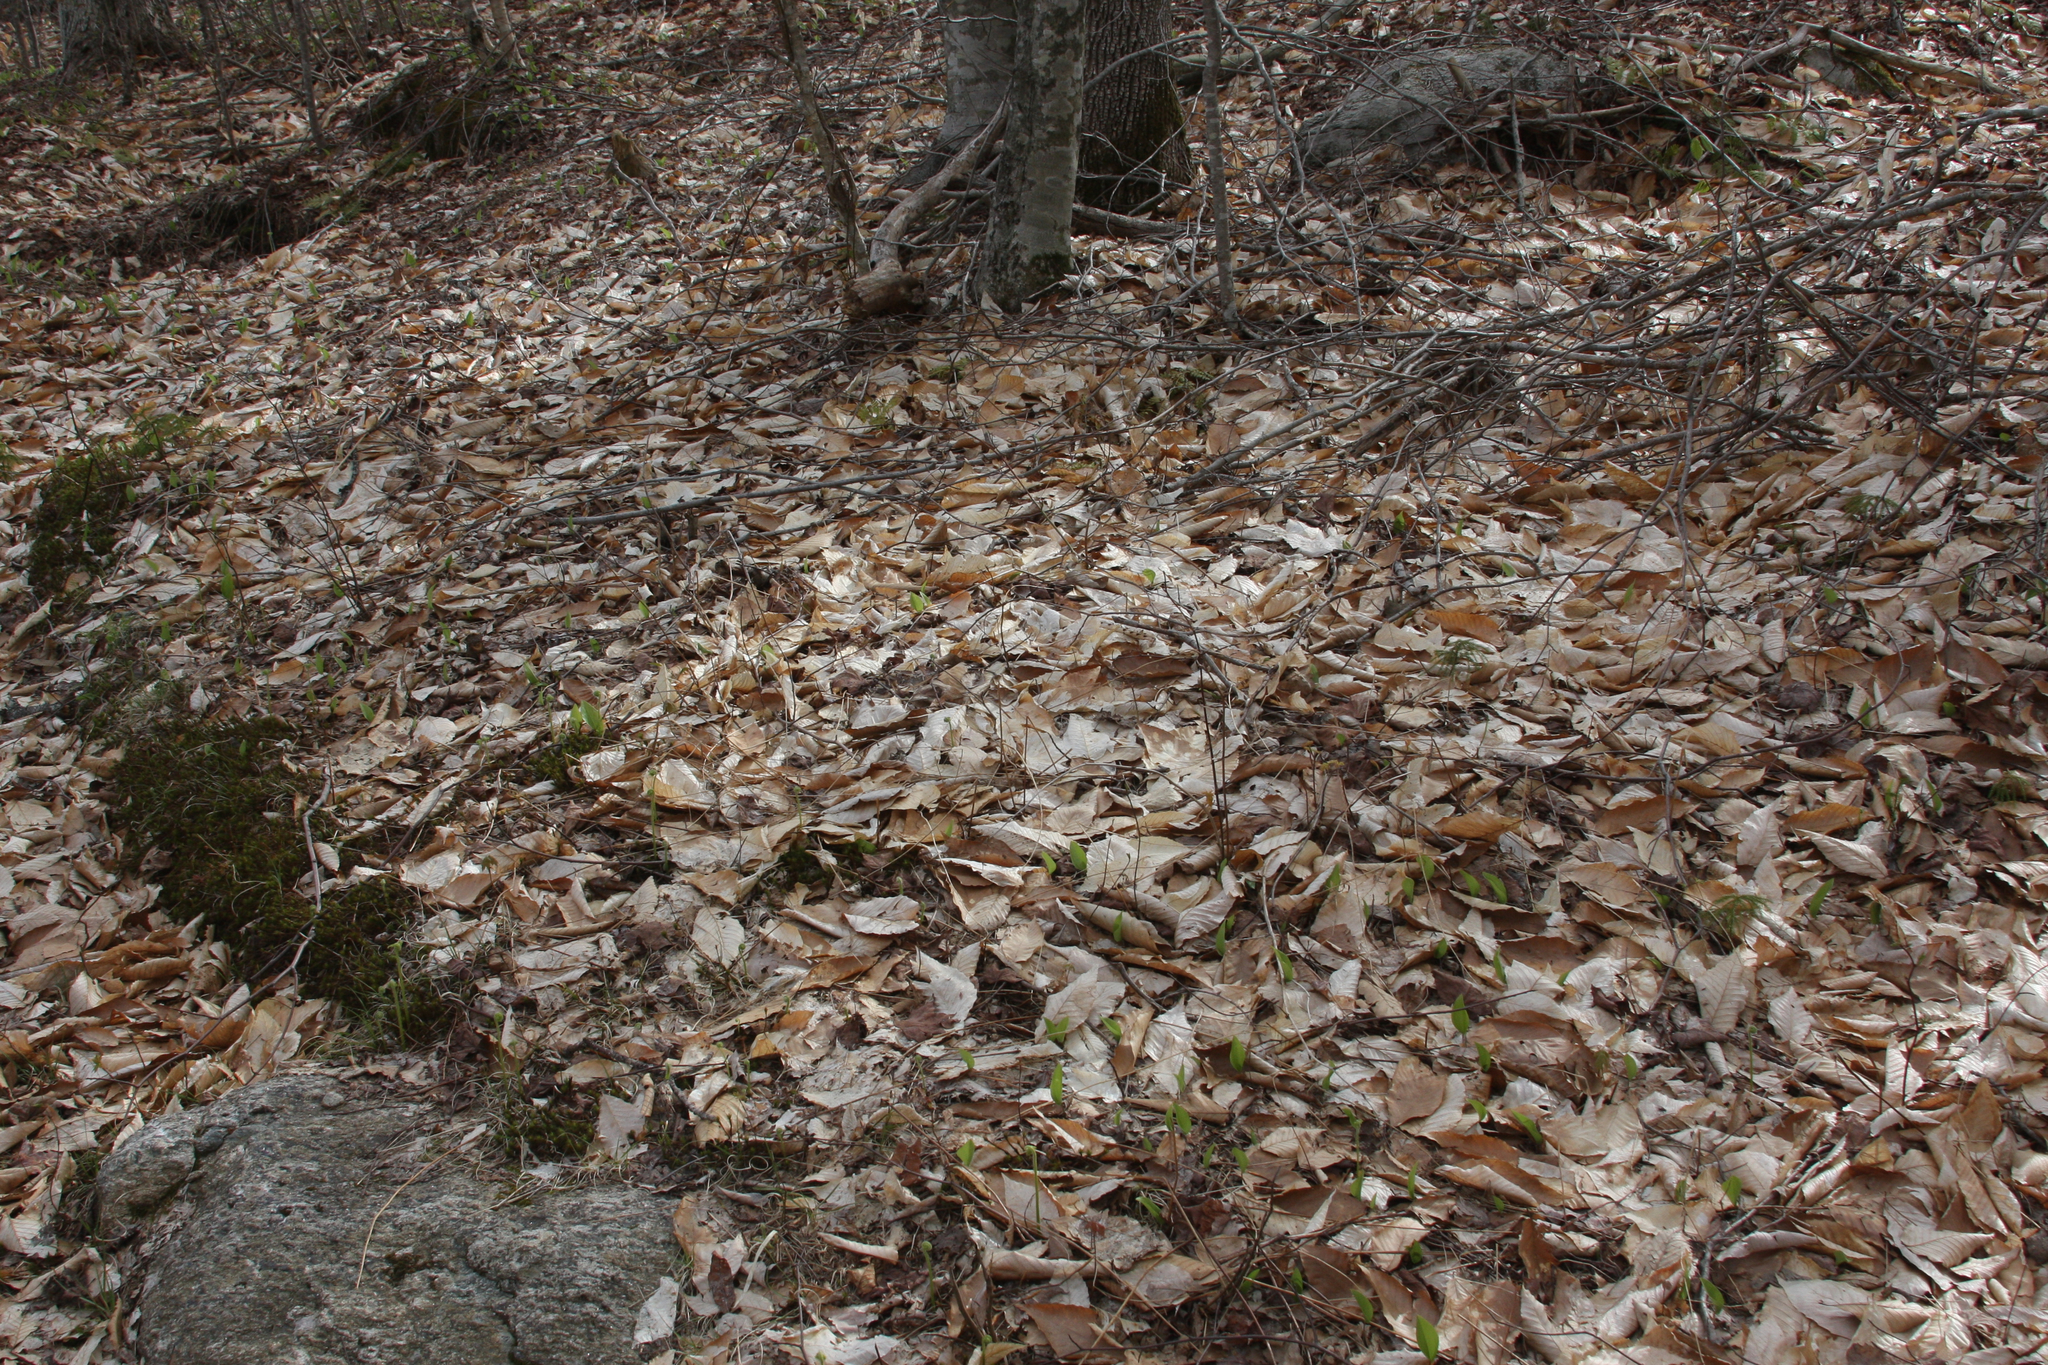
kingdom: Plantae
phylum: Tracheophyta
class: Magnoliopsida
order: Fagales
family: Fagaceae
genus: Fagus
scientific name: Fagus grandifolia
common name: American beech
